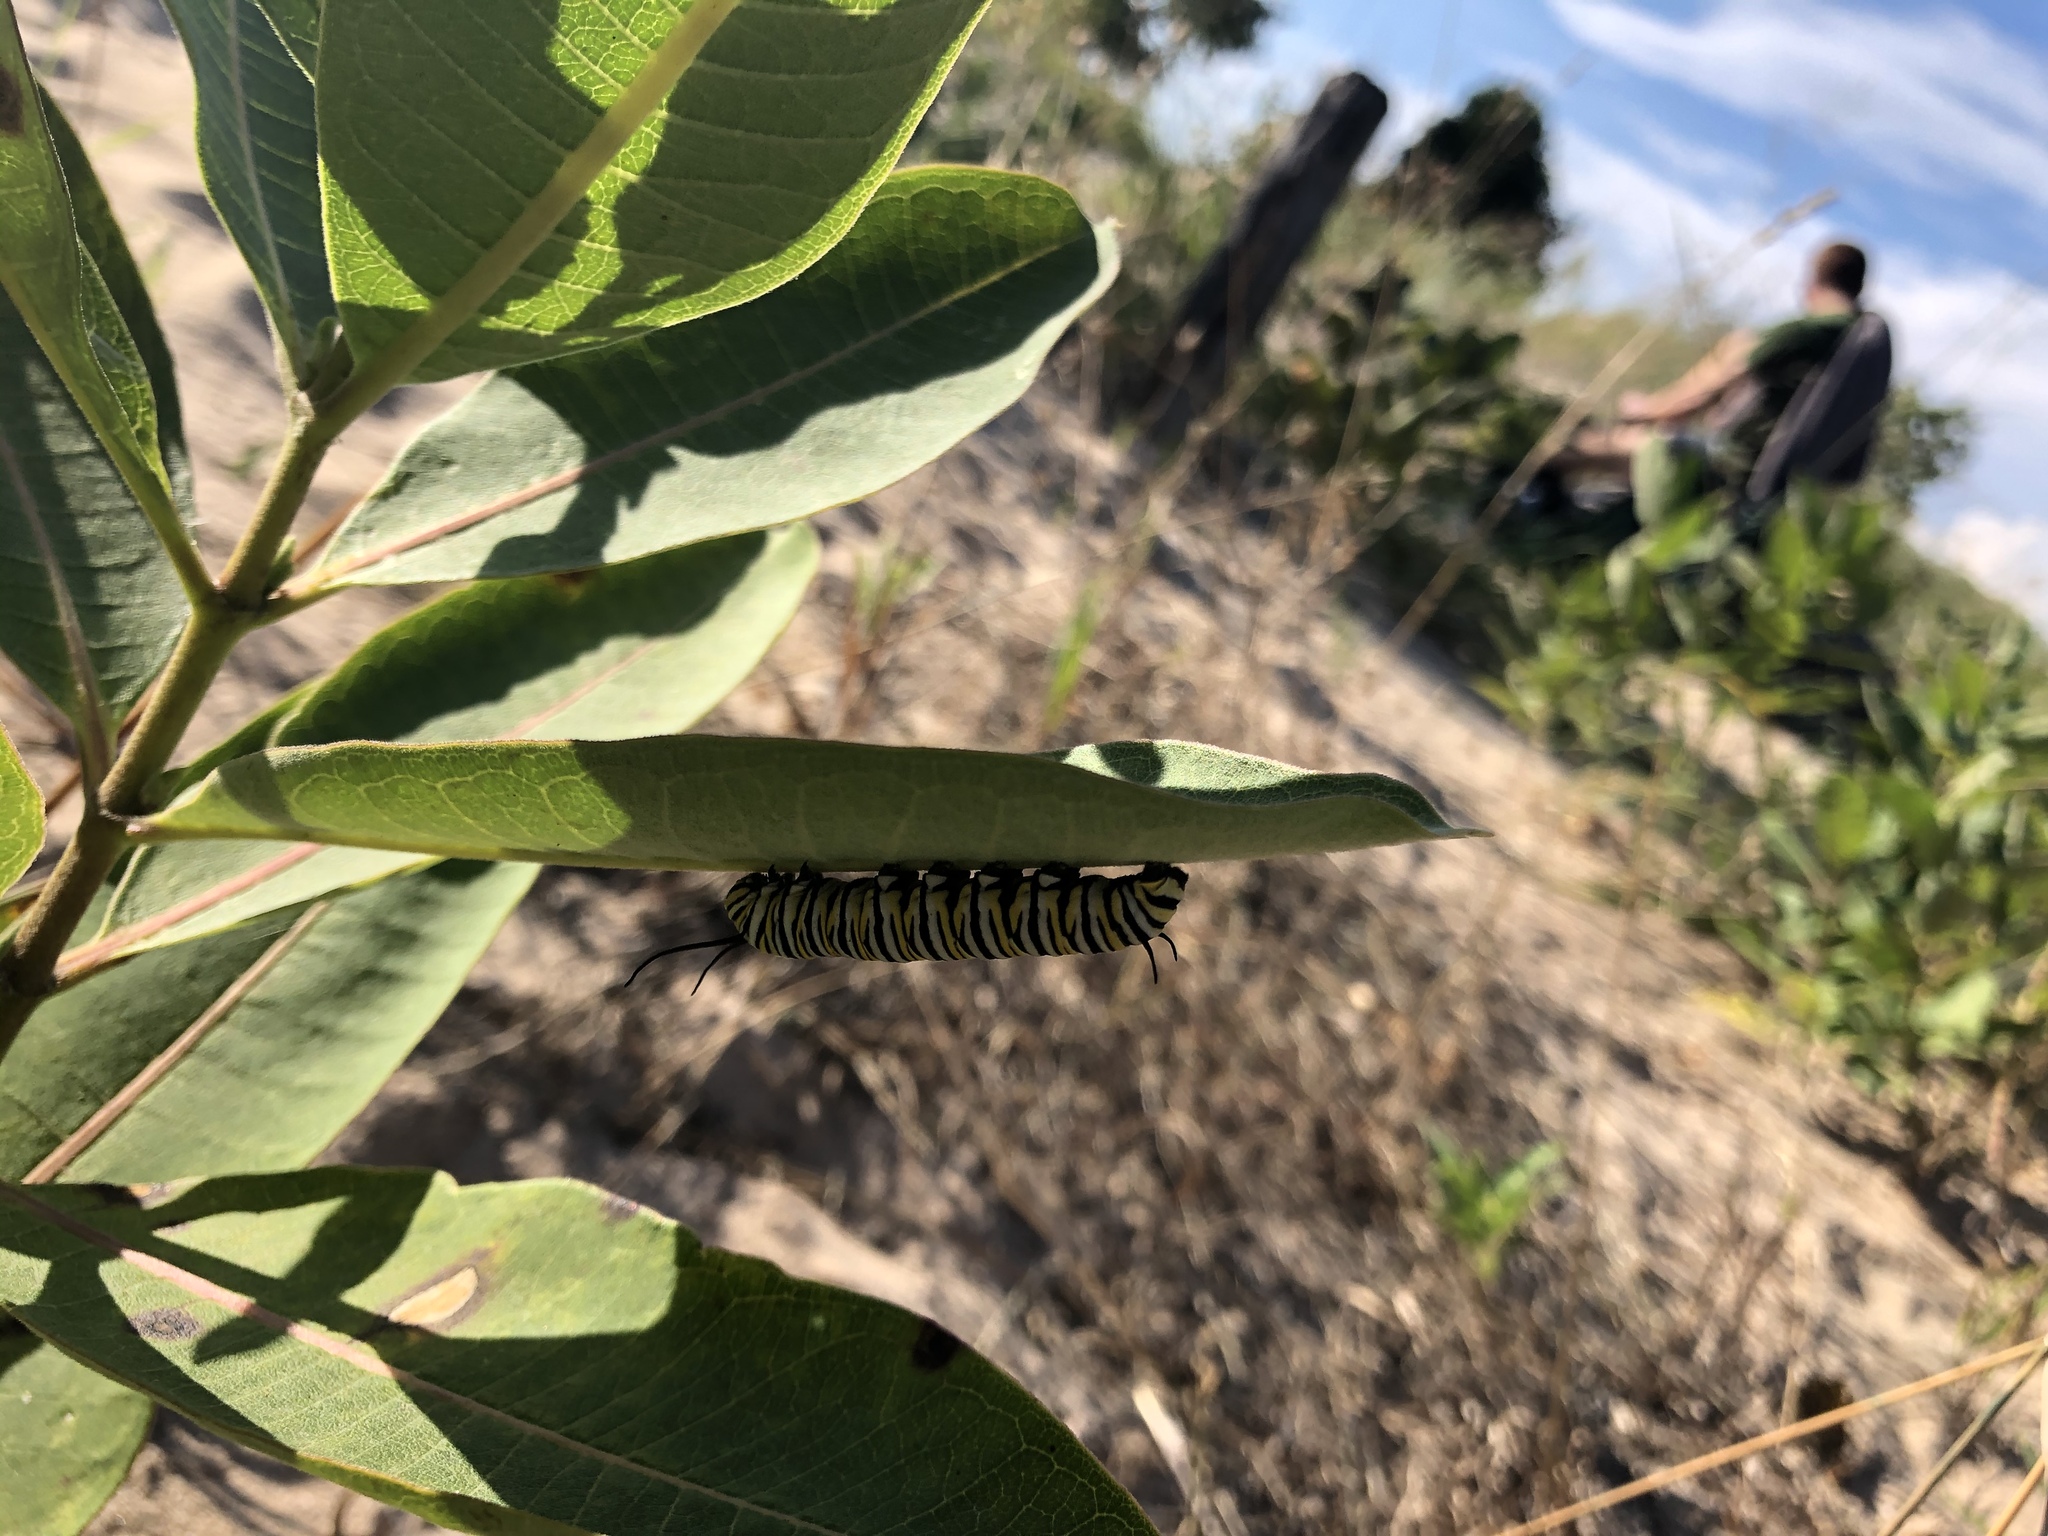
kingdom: Animalia
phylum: Arthropoda
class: Insecta
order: Lepidoptera
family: Nymphalidae
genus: Danaus
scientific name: Danaus plexippus
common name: Monarch
